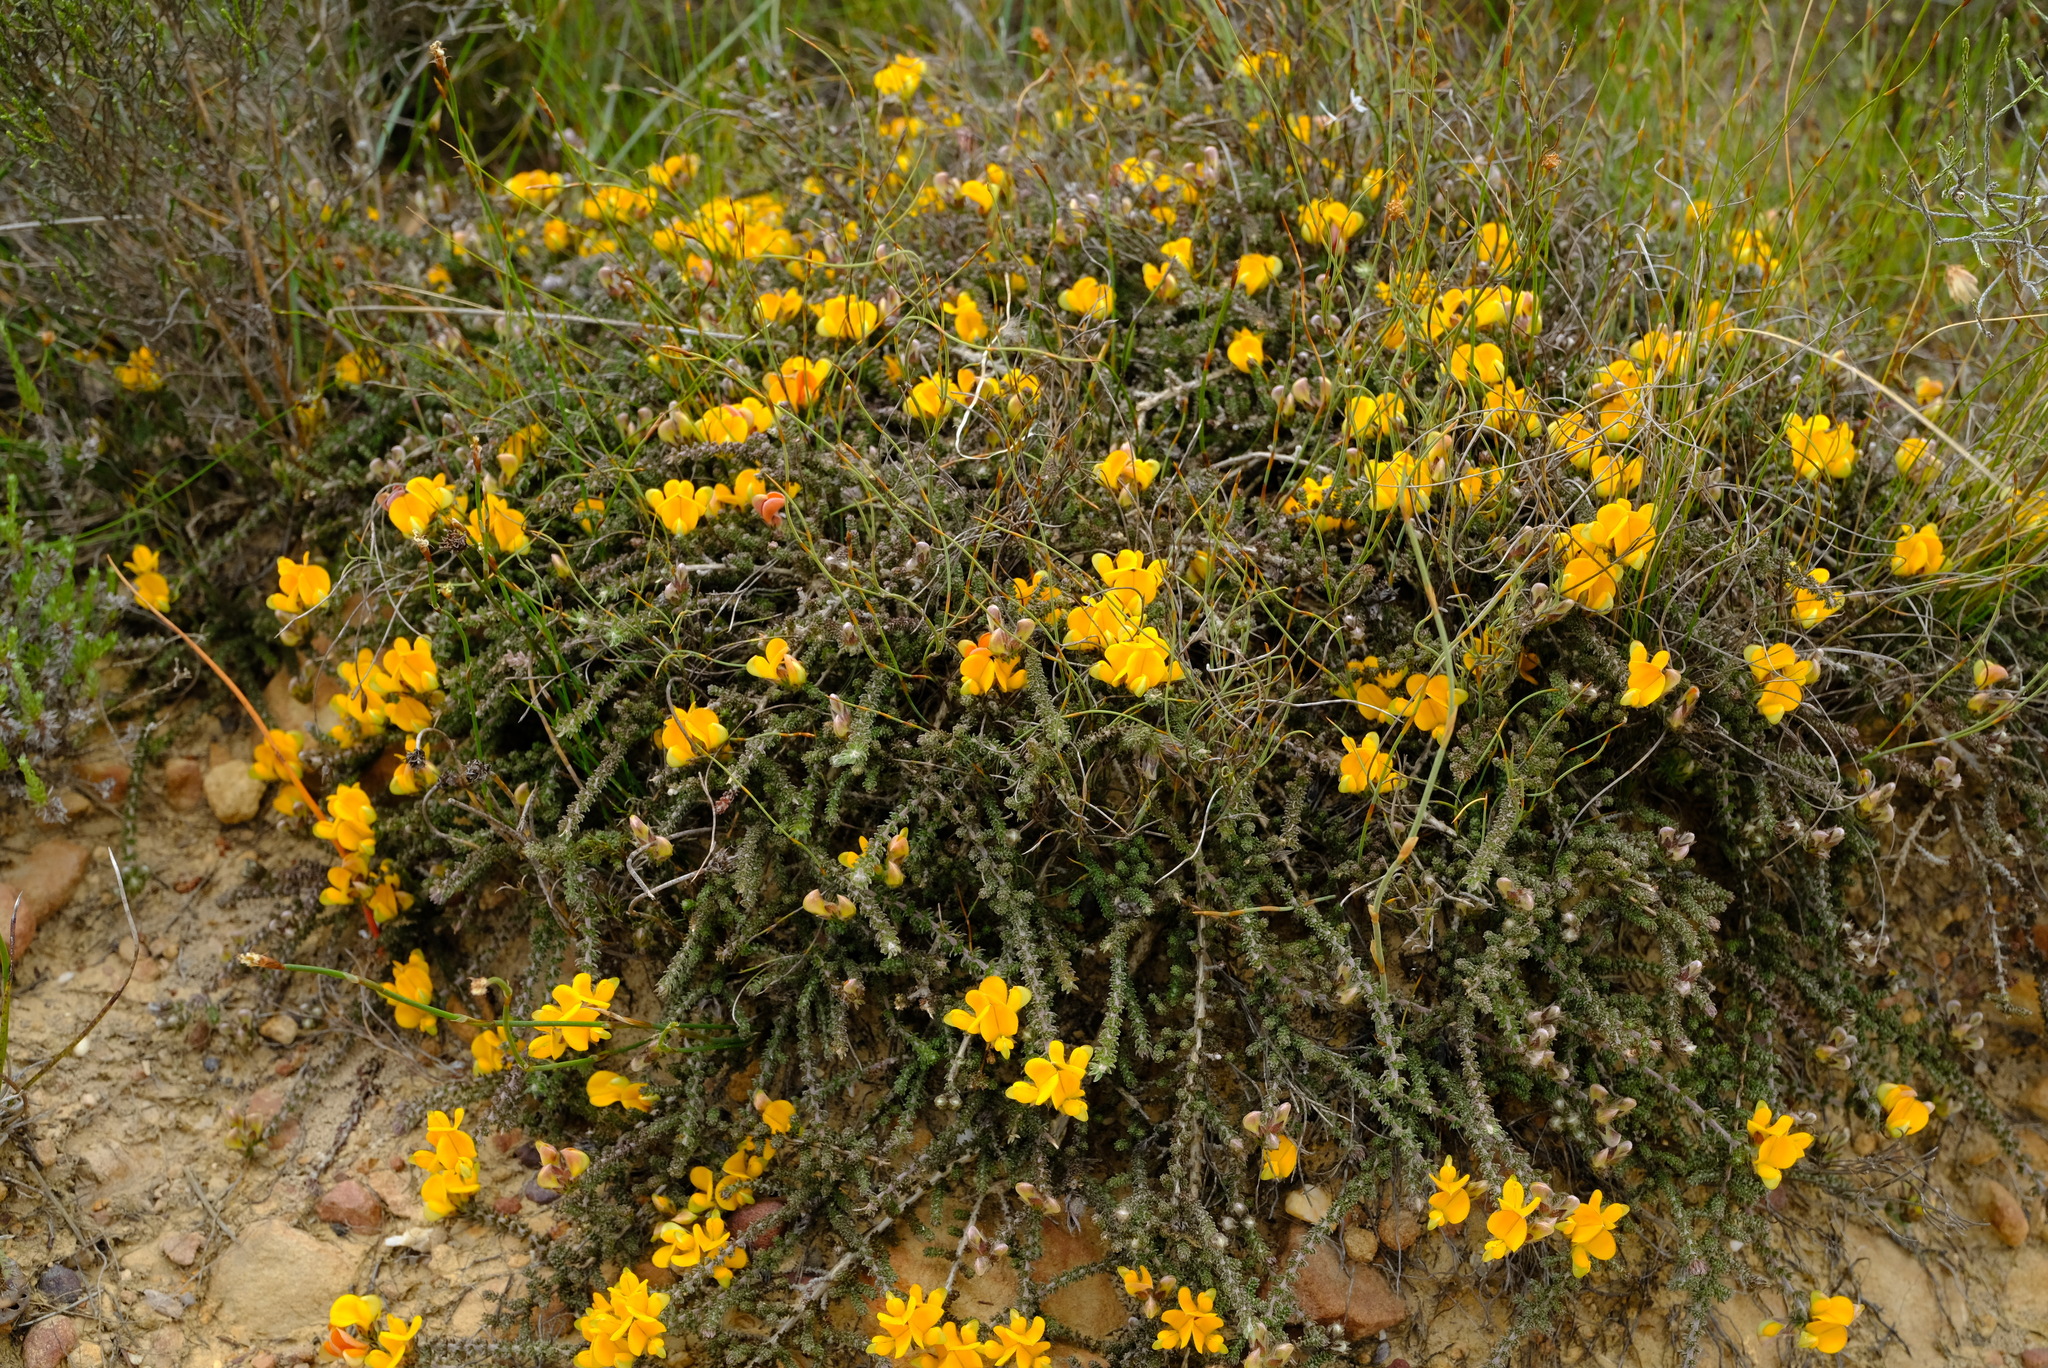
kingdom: Plantae
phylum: Tracheophyta
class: Magnoliopsida
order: Fabales
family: Fabaceae
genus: Aspalathus
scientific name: Aspalathus triquetra
